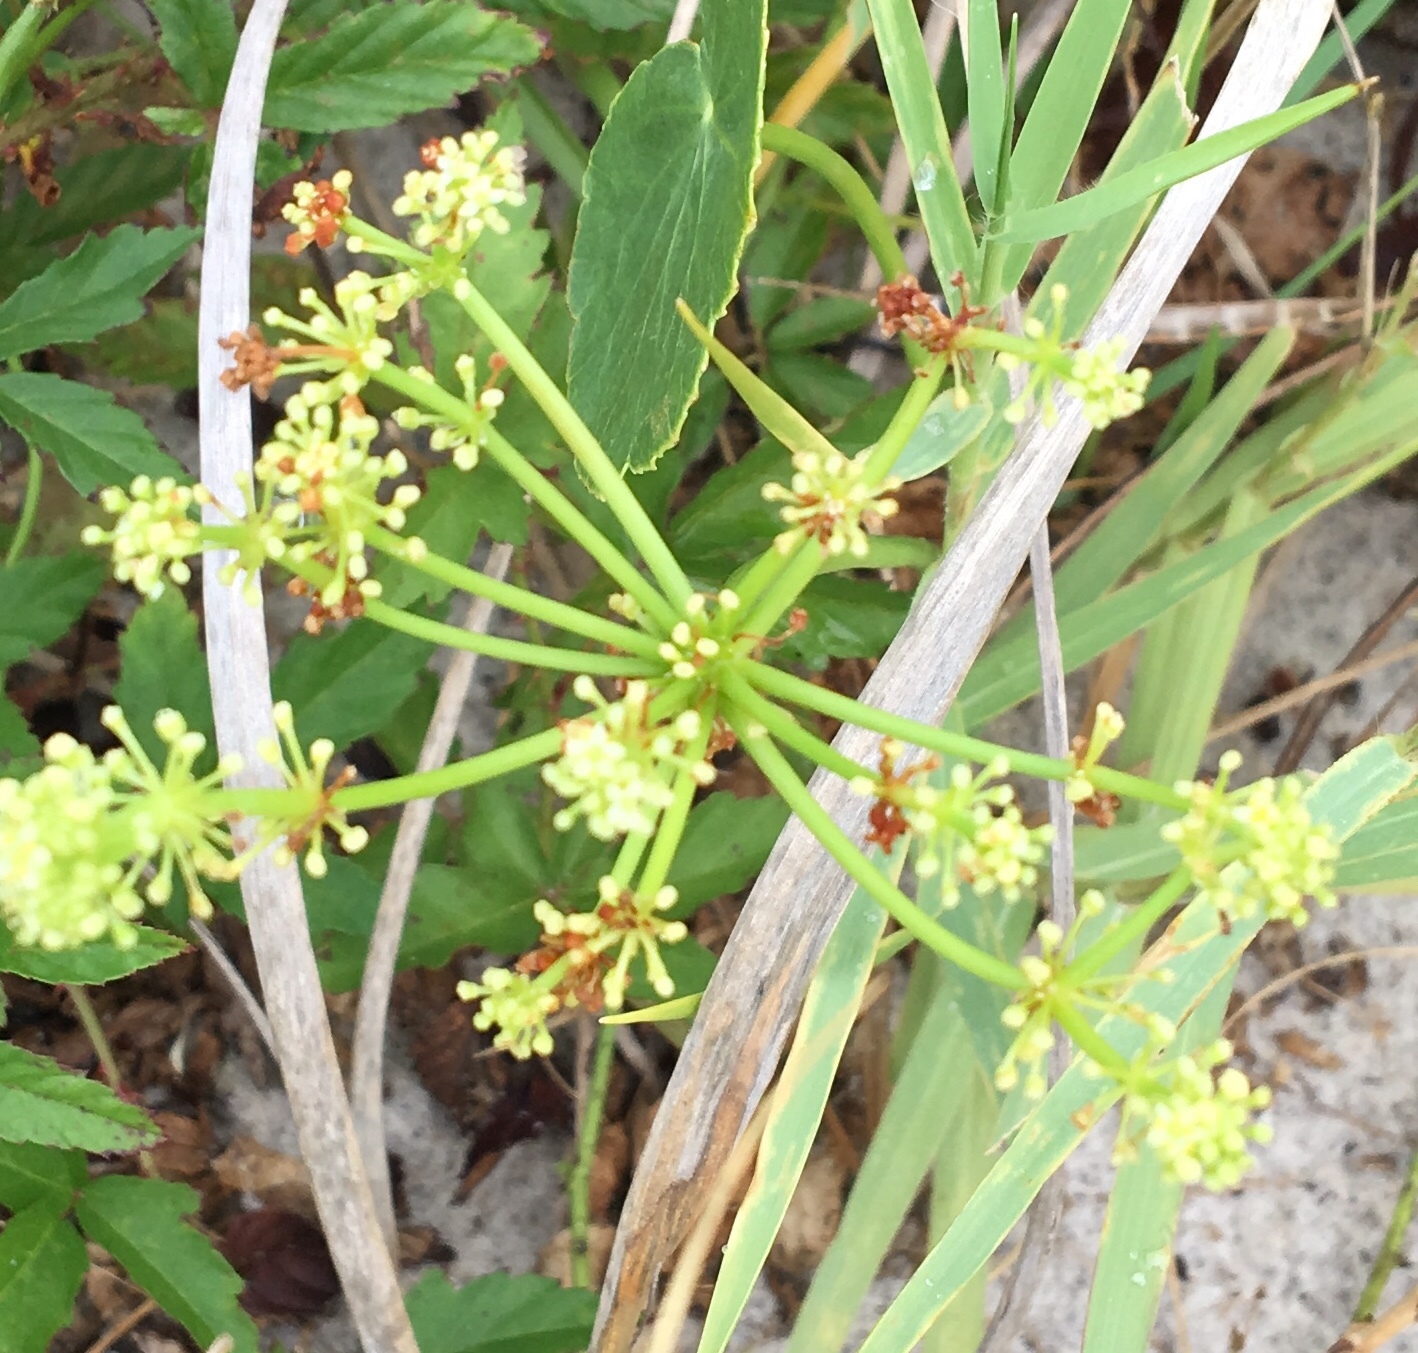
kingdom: Plantae
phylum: Tracheophyta
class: Magnoliopsida
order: Apiales
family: Araliaceae
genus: Hydrocotyle
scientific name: Hydrocotyle bonariensis
